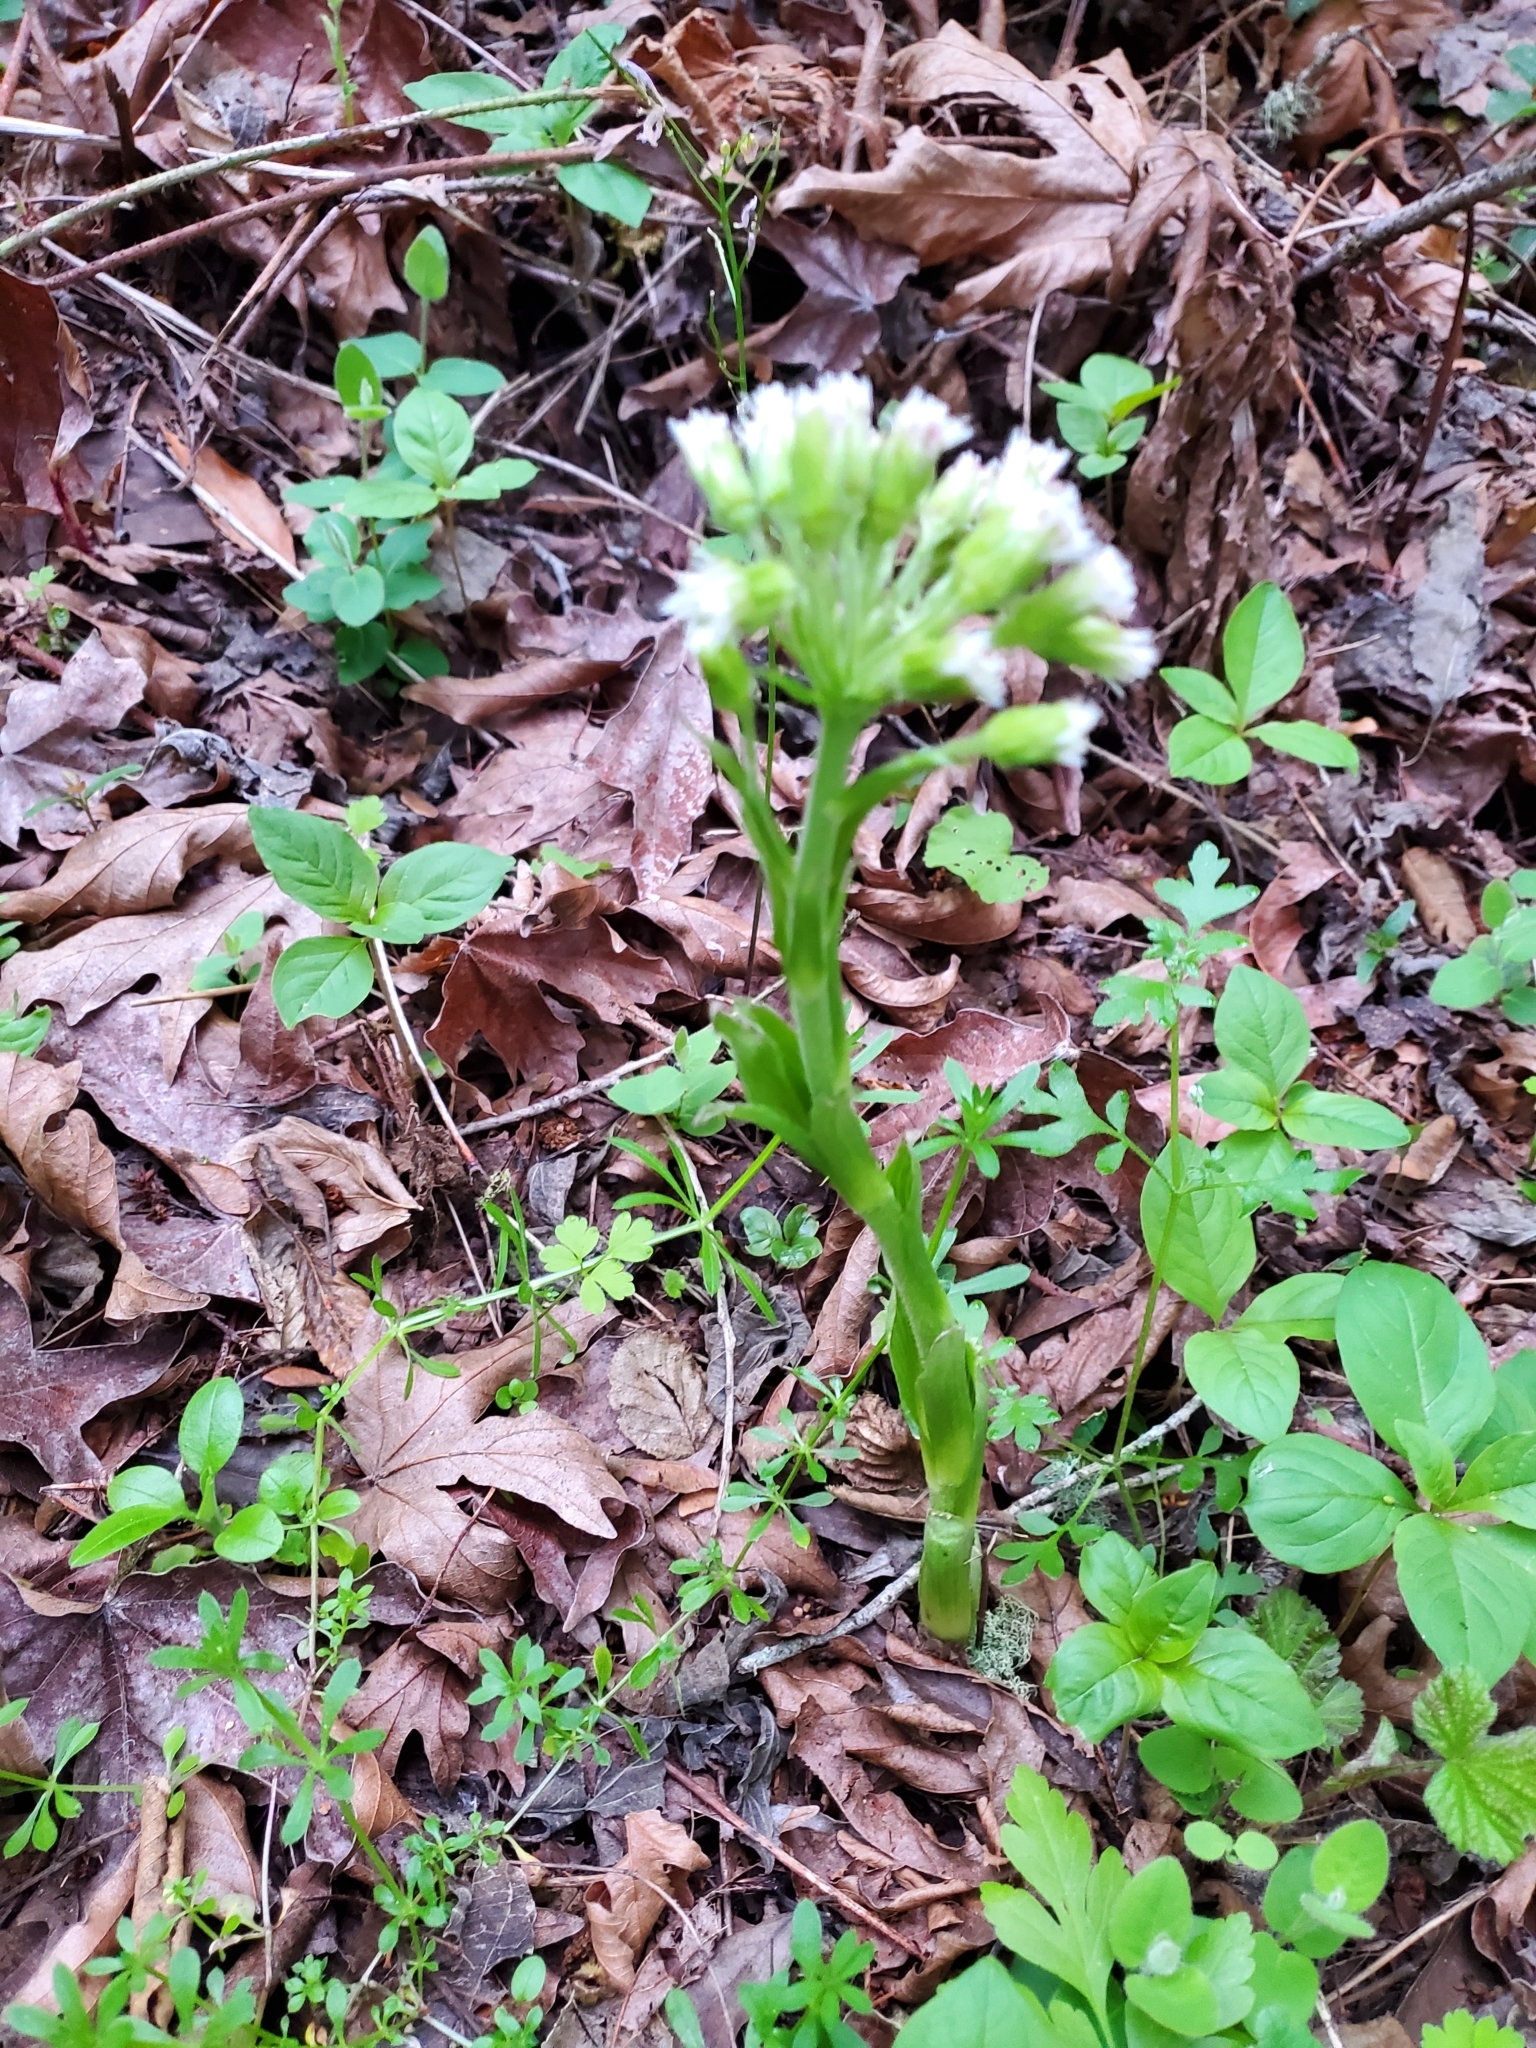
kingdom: Plantae
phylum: Tracheophyta
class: Magnoliopsida
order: Asterales
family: Asteraceae
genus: Petasites
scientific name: Petasites frigidus
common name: Arctic butterbur
